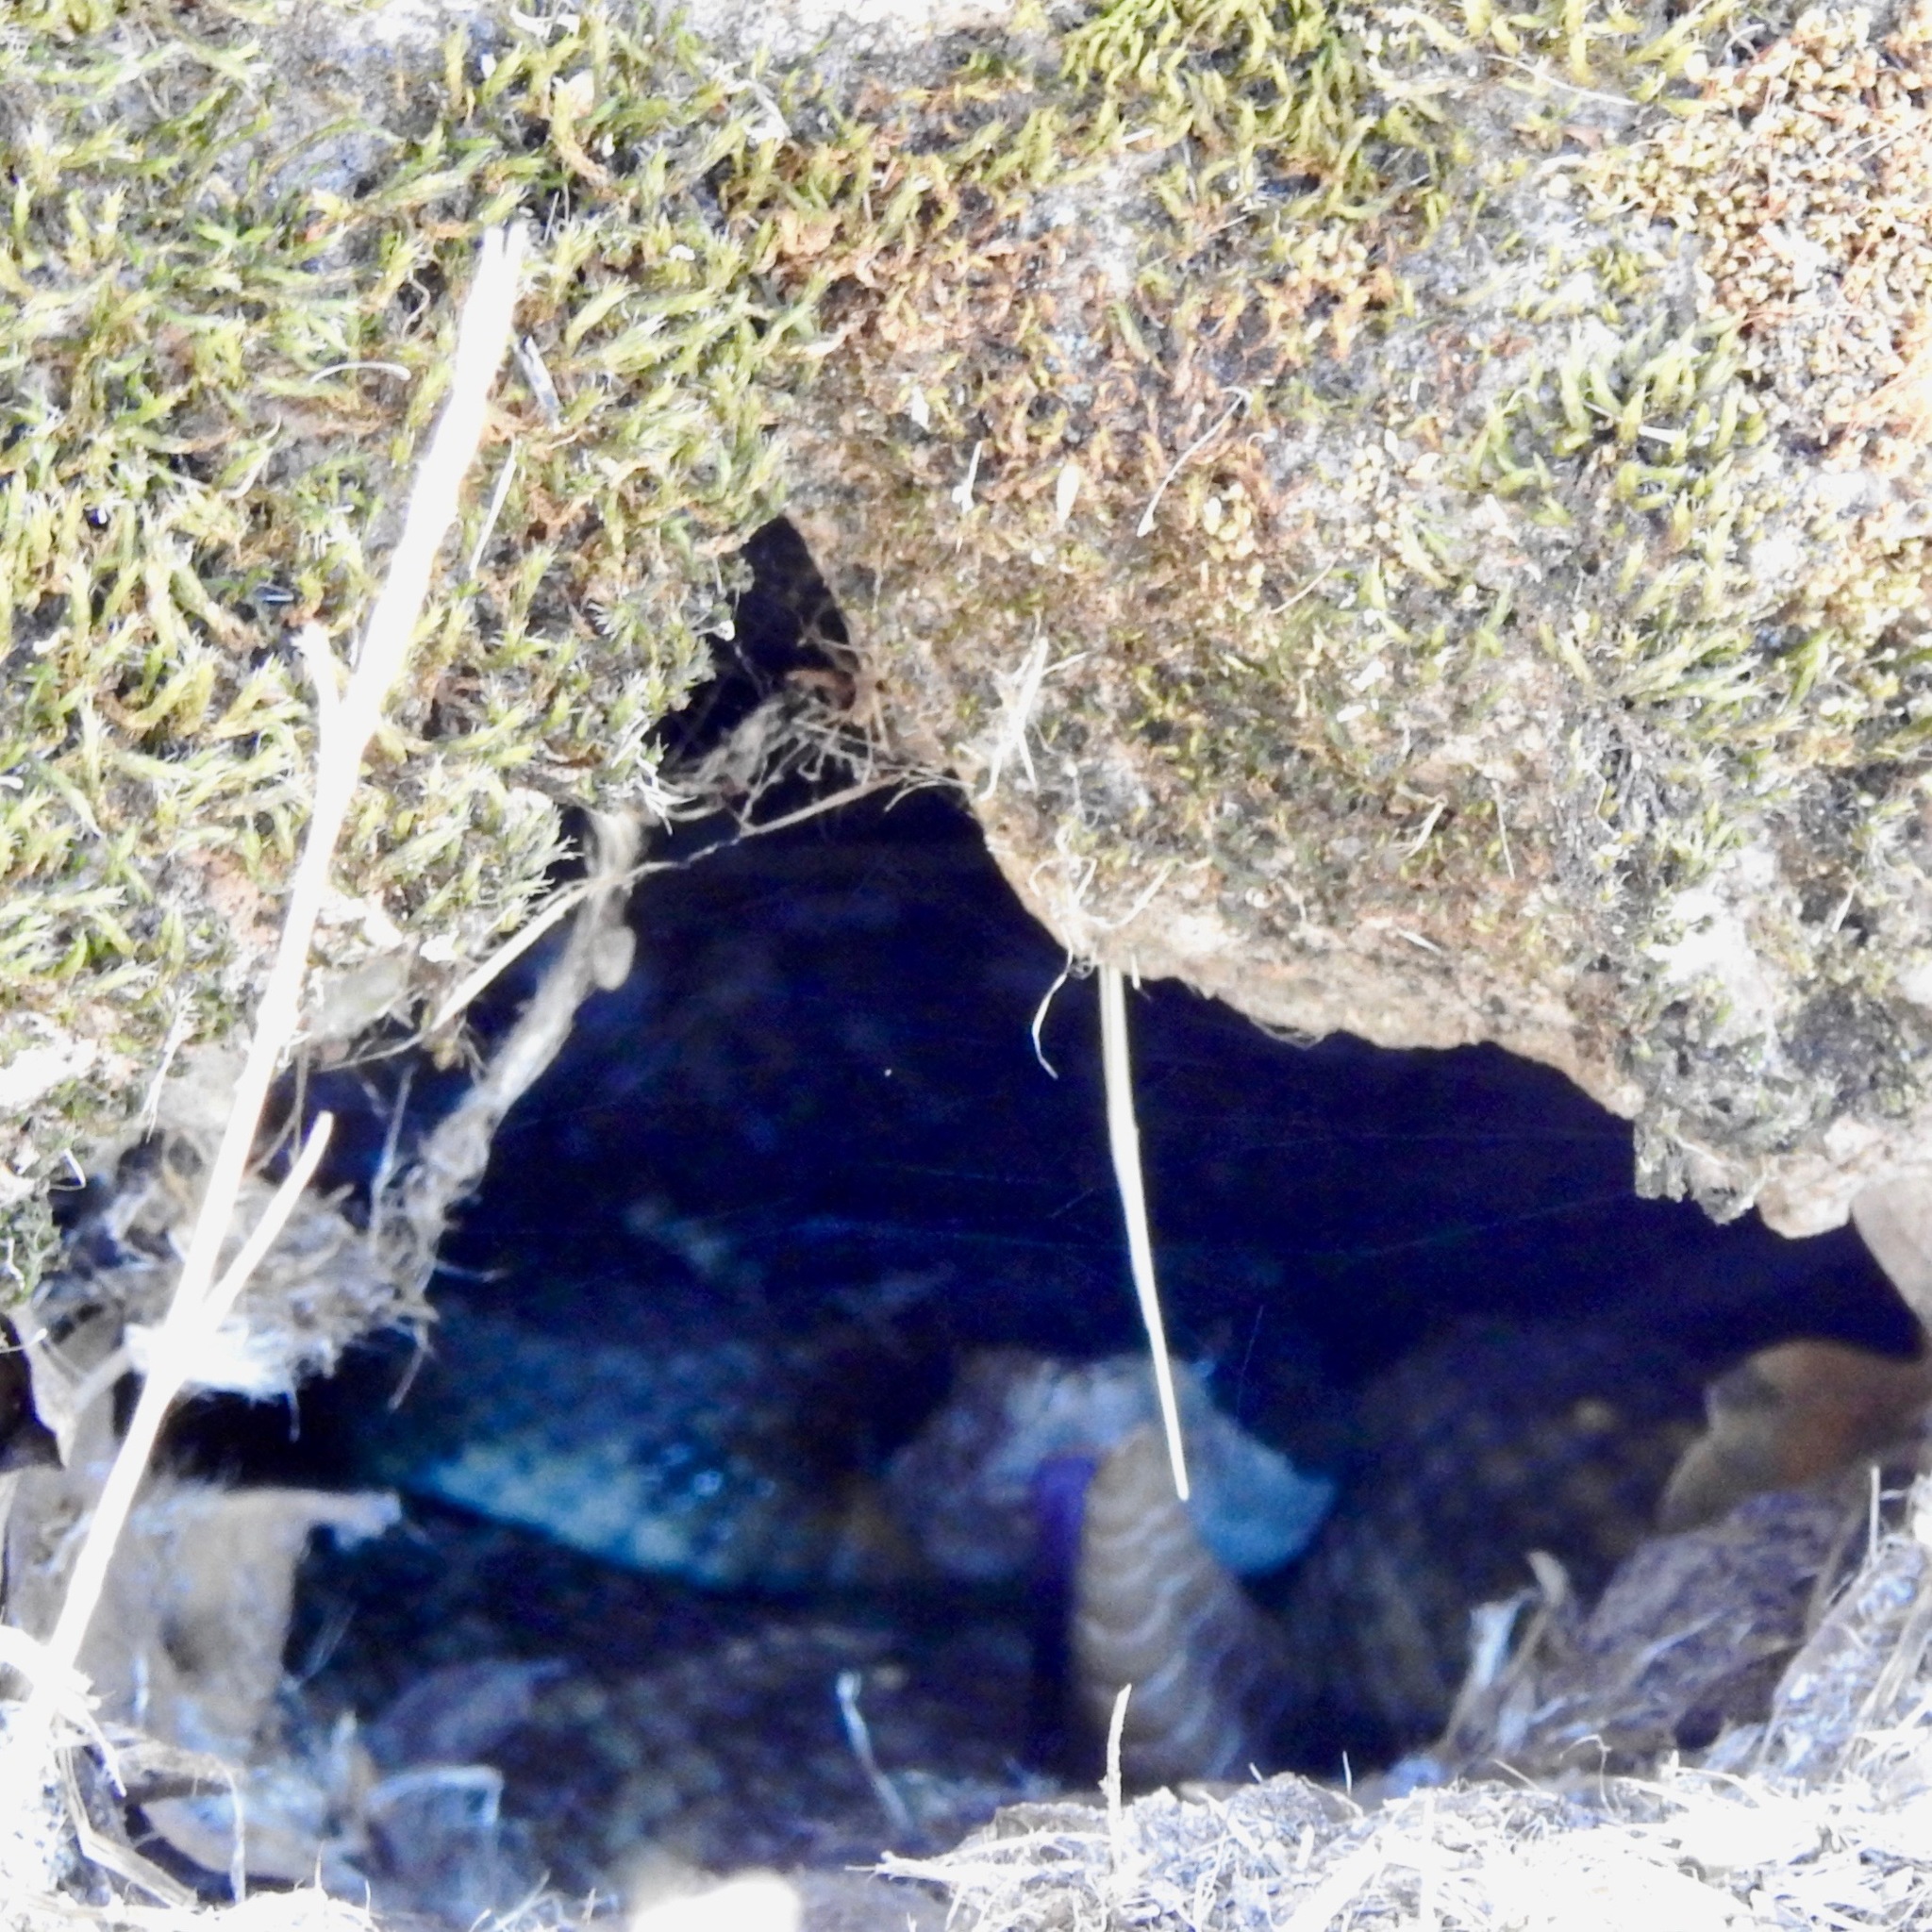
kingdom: Animalia
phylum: Chordata
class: Squamata
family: Viperidae
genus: Crotalus
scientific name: Crotalus oreganus
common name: Abyssus
